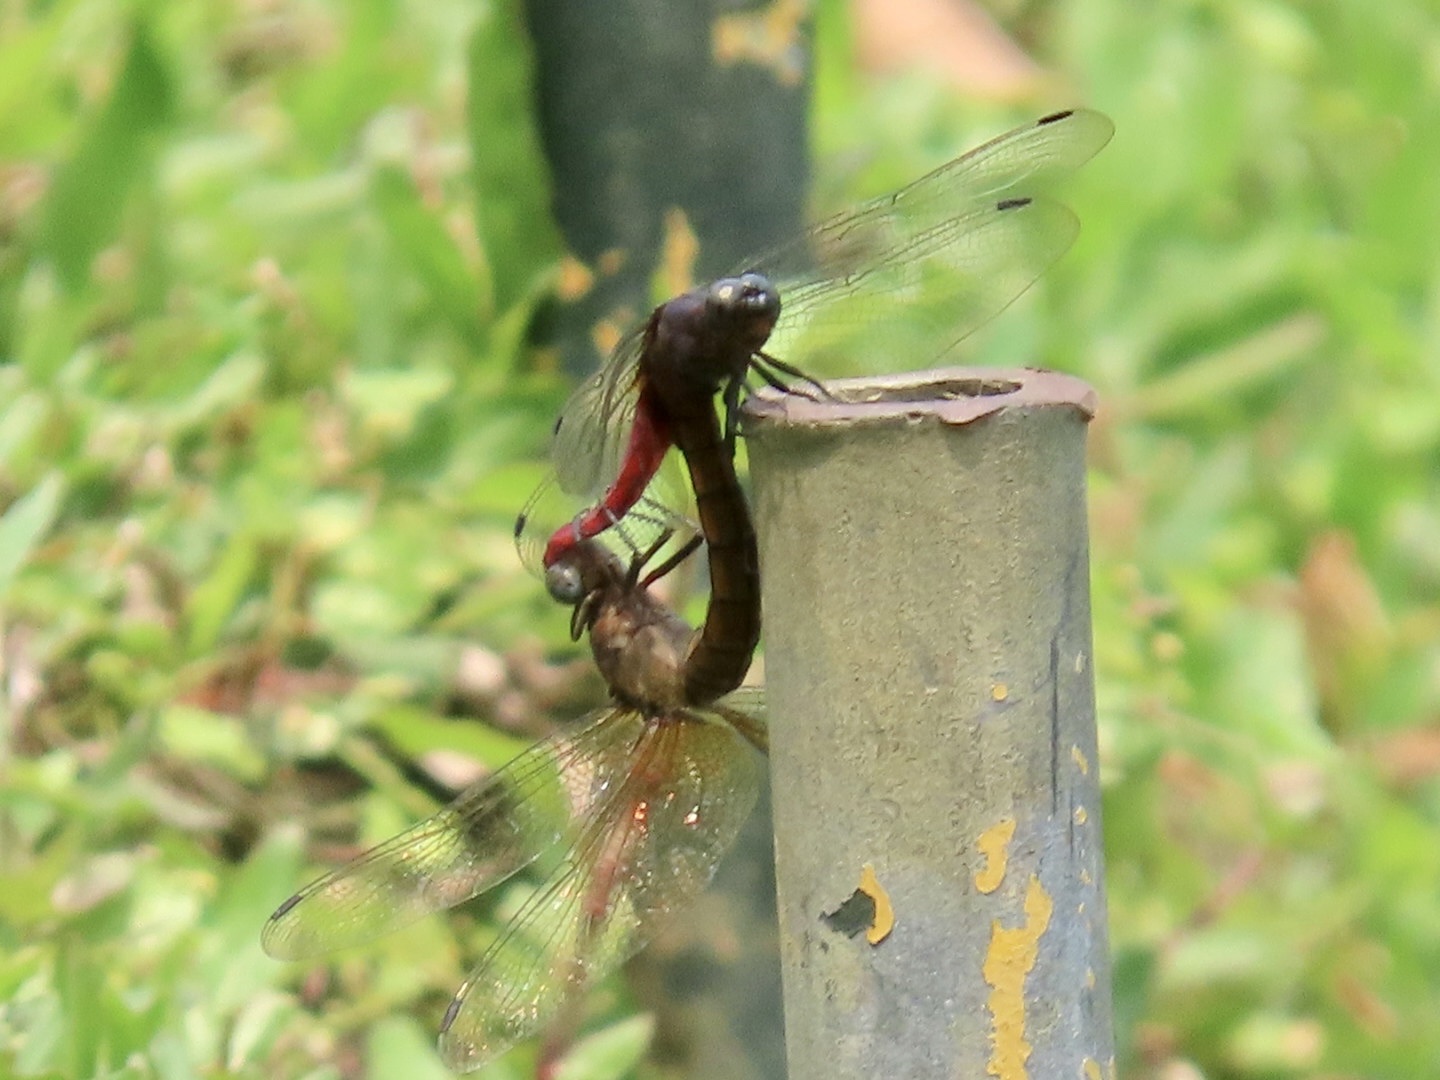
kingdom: Animalia
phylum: Arthropoda
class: Insecta
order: Odonata
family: Libellulidae
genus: Orthetrum
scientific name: Orthetrum pruinosum
